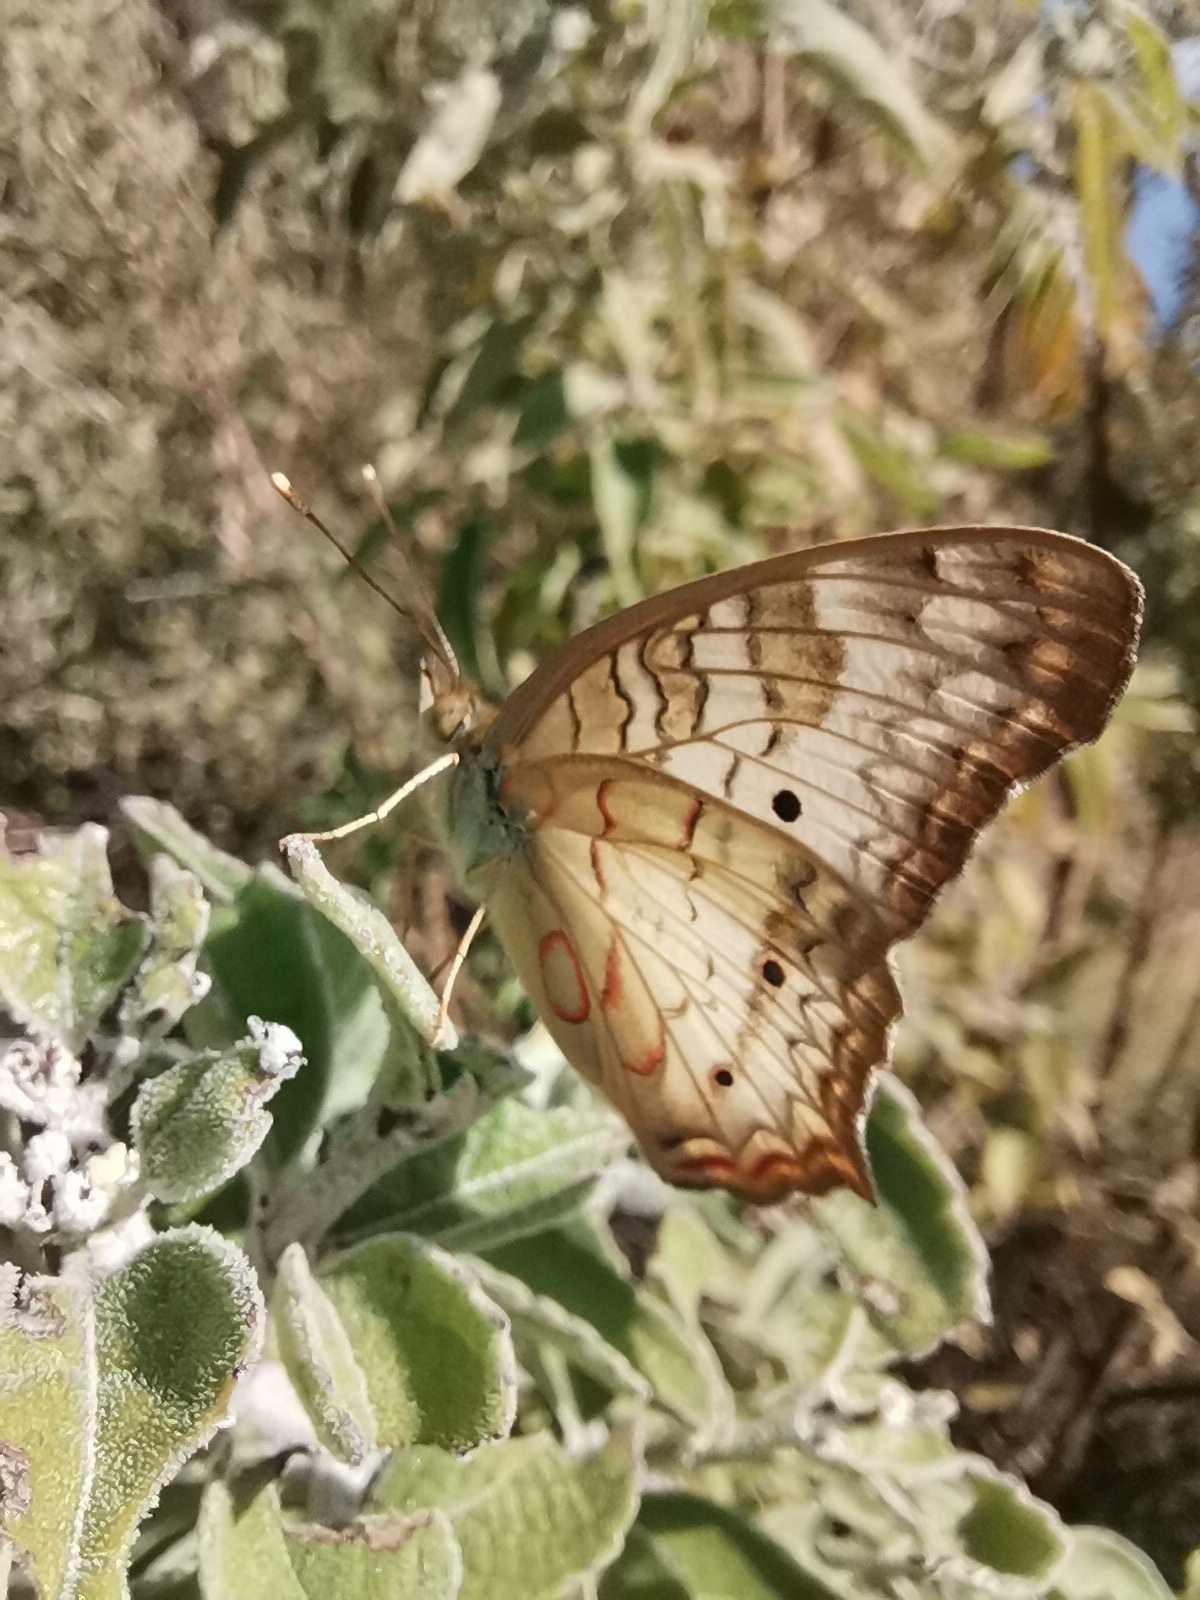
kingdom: Animalia
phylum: Arthropoda
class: Insecta
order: Lepidoptera
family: Nymphalidae
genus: Anartia
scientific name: Anartia jatrophae
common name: White peacock
